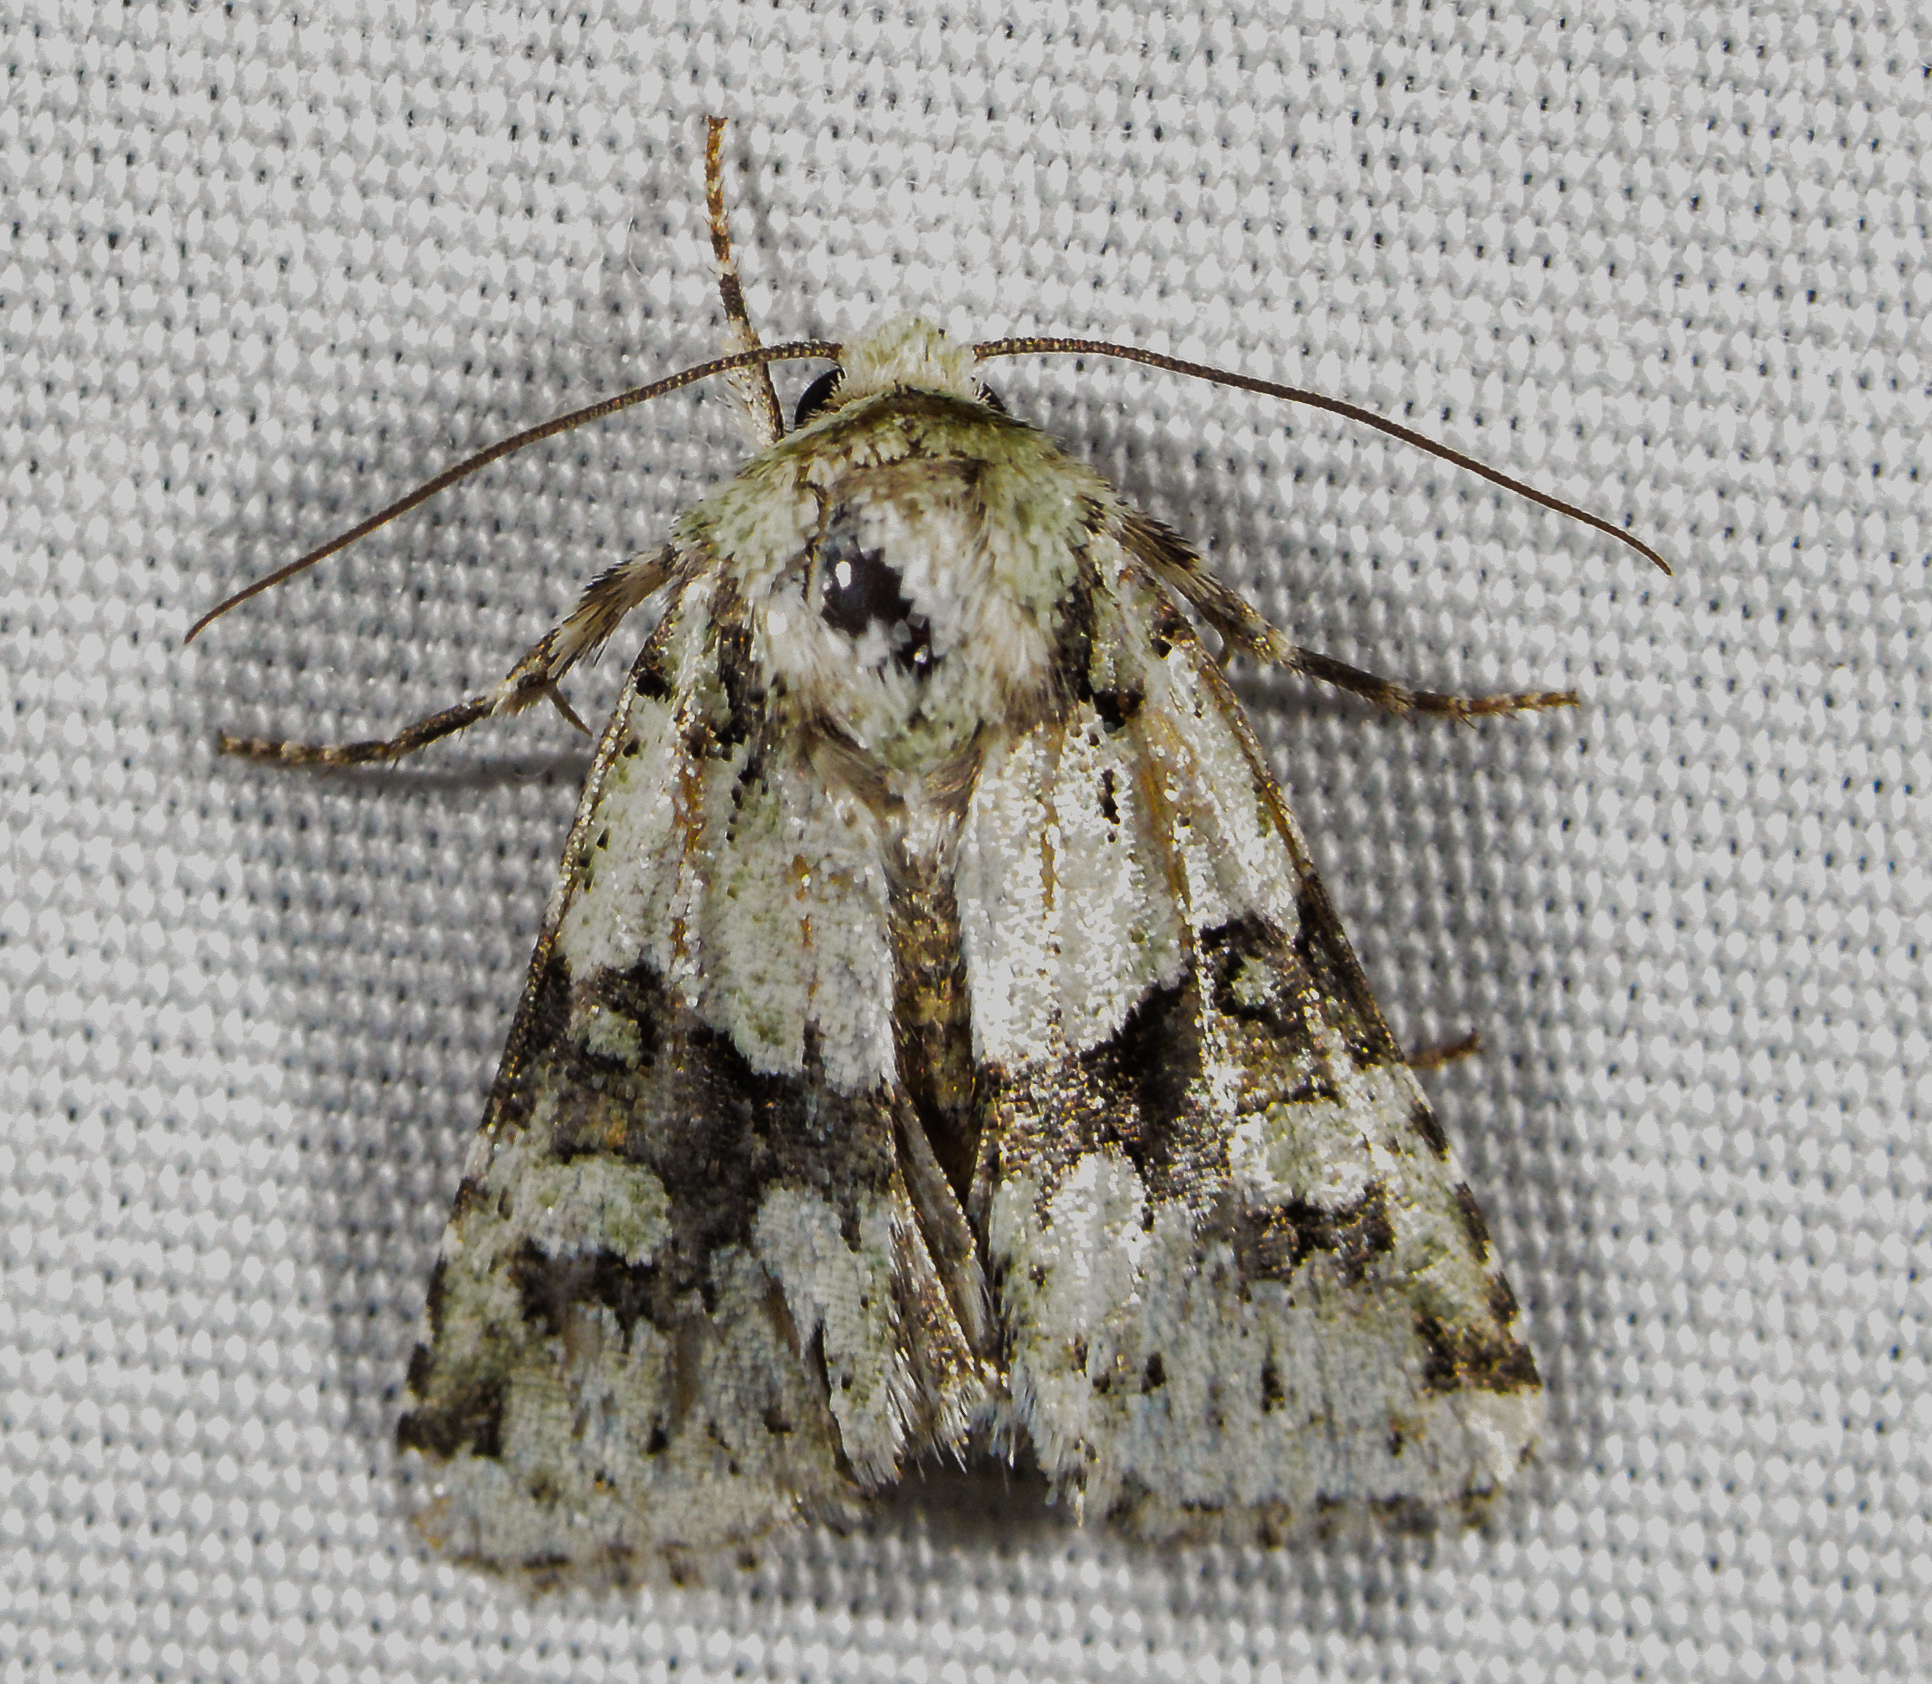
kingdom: Animalia
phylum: Arthropoda
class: Insecta
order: Lepidoptera
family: Noctuidae
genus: Lacinipolia
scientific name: Lacinipolia implicata
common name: Implicit arches
